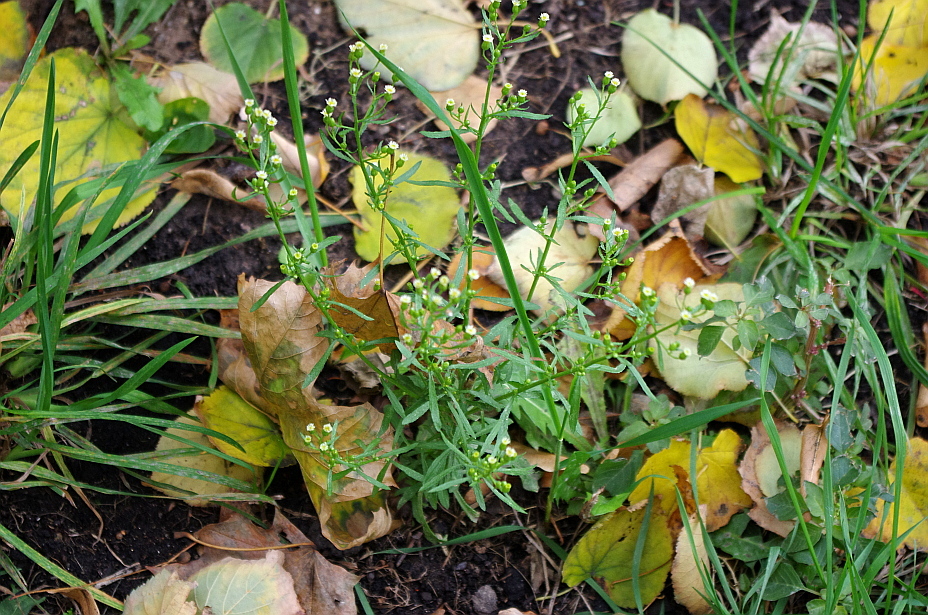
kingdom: Plantae
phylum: Tracheophyta
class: Magnoliopsida
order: Asterales
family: Asteraceae
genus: Erigeron
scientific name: Erigeron canadensis
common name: Canadian fleabane
